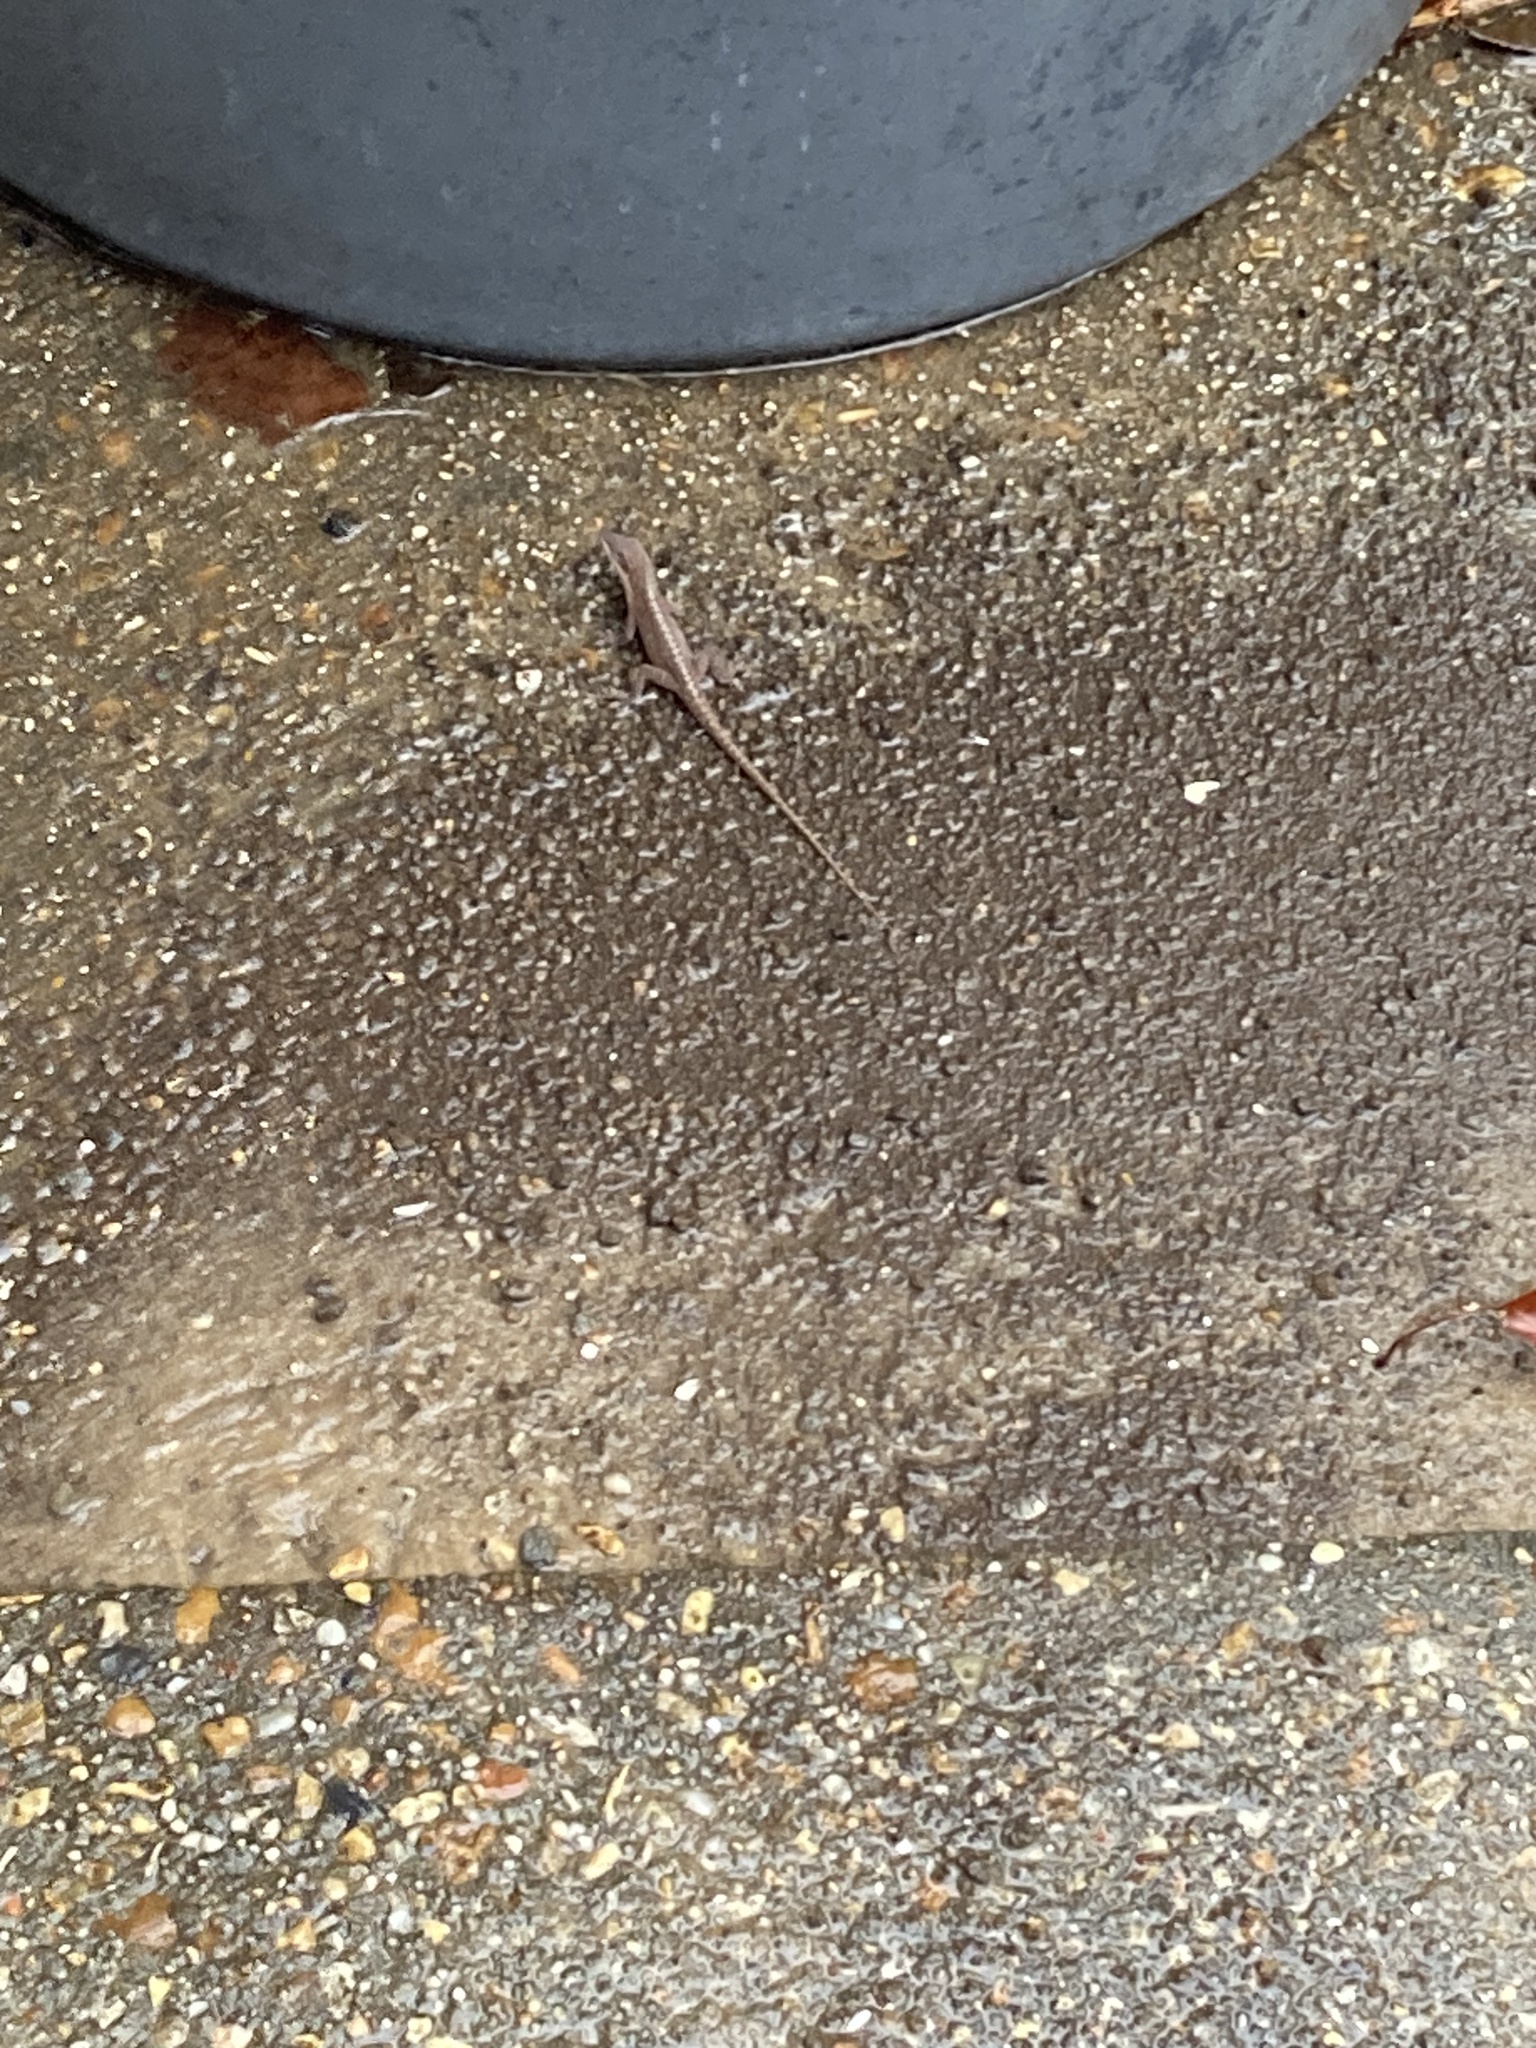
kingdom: Animalia
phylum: Chordata
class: Squamata
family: Dactyloidae
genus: Anolis
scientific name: Anolis carolinensis
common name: Green anole
